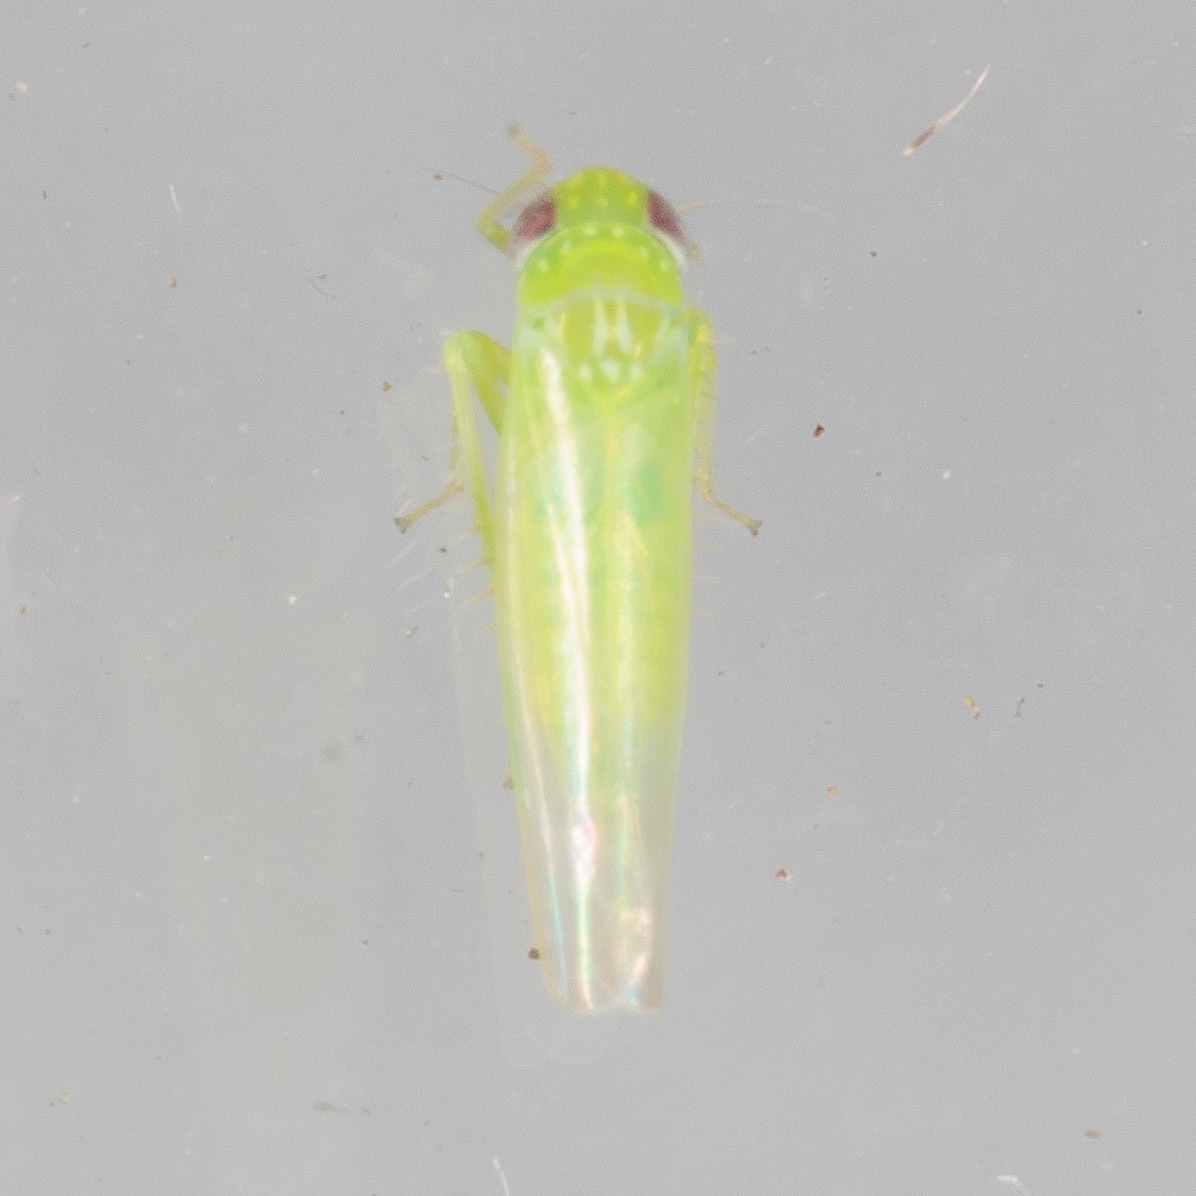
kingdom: Animalia
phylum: Arthropoda
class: Insecta
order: Hemiptera
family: Cicadellidae
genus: Empoasca
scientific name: Empoasca fabae
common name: Potato leafhopper
